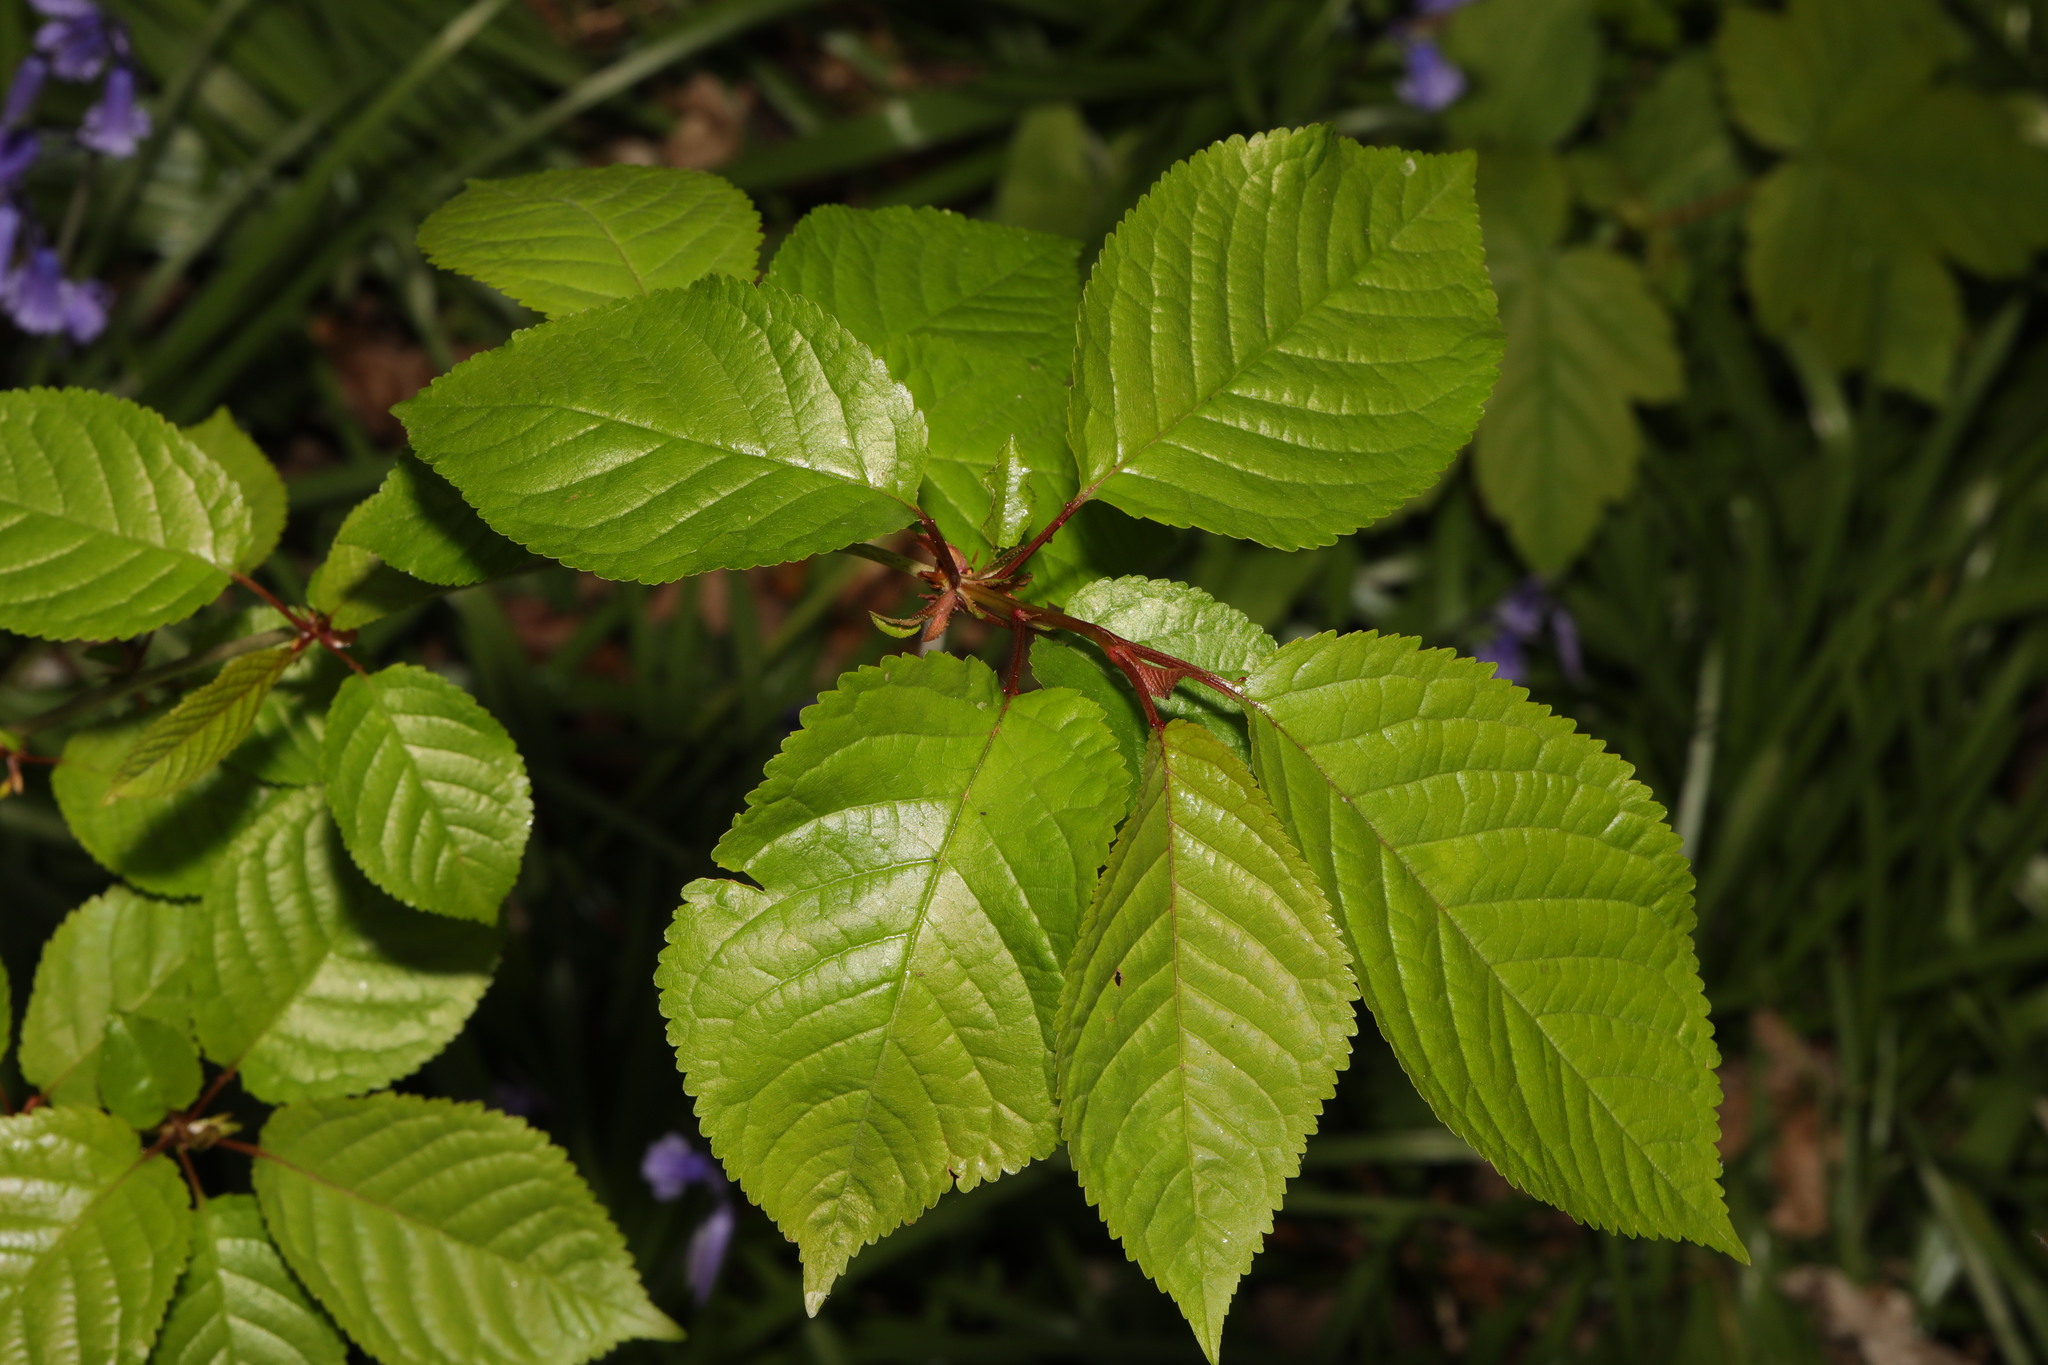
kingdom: Plantae
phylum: Tracheophyta
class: Magnoliopsida
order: Rosales
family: Rosaceae
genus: Prunus
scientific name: Prunus avium
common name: Sweet cherry
